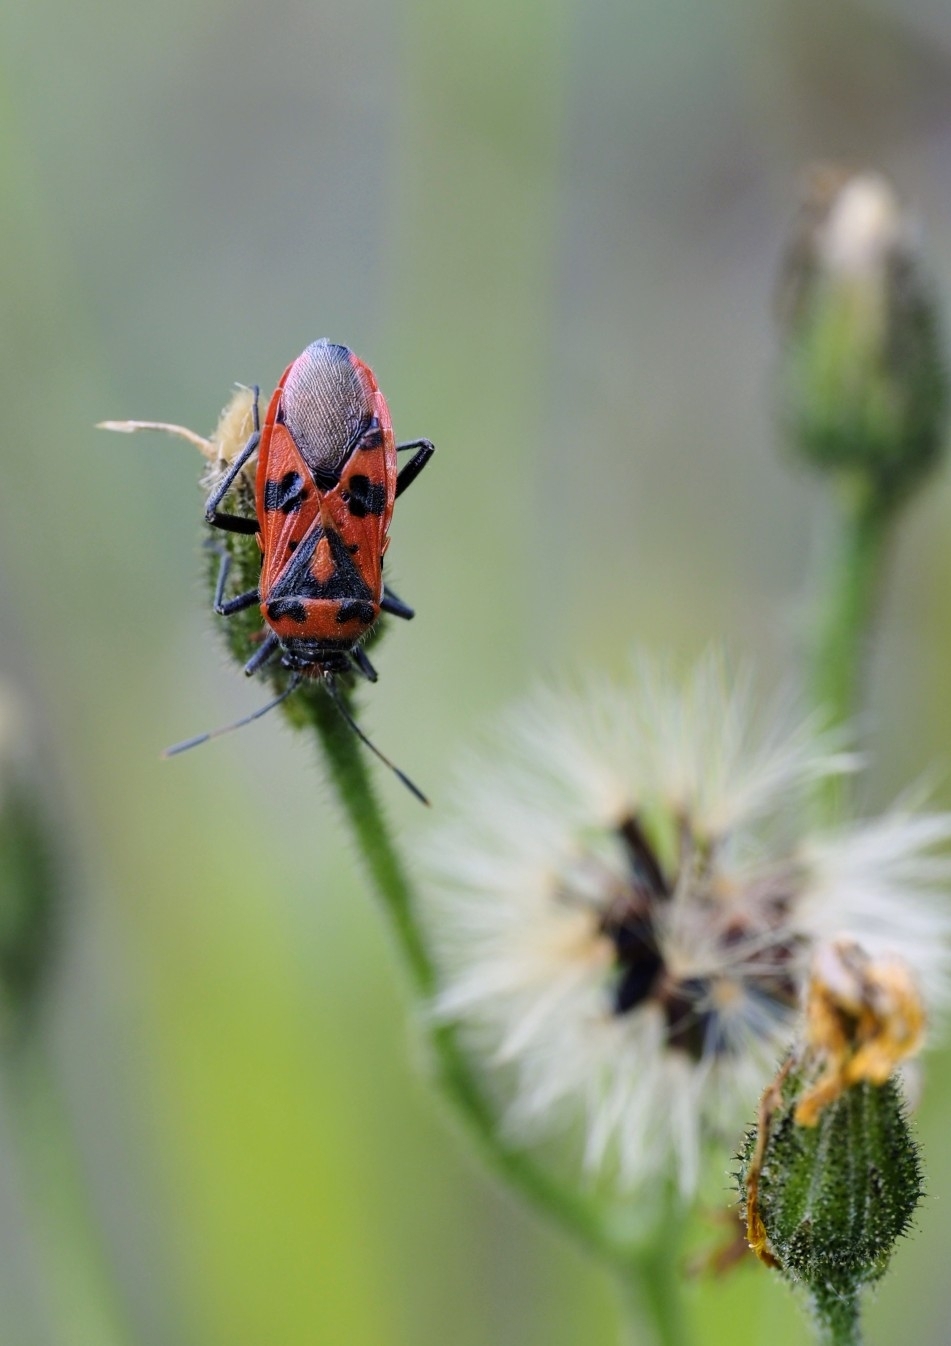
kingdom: Animalia
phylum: Arthropoda
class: Insecta
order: Hemiptera
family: Rhopalidae
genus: Corizus
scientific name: Corizus hyoscyami
